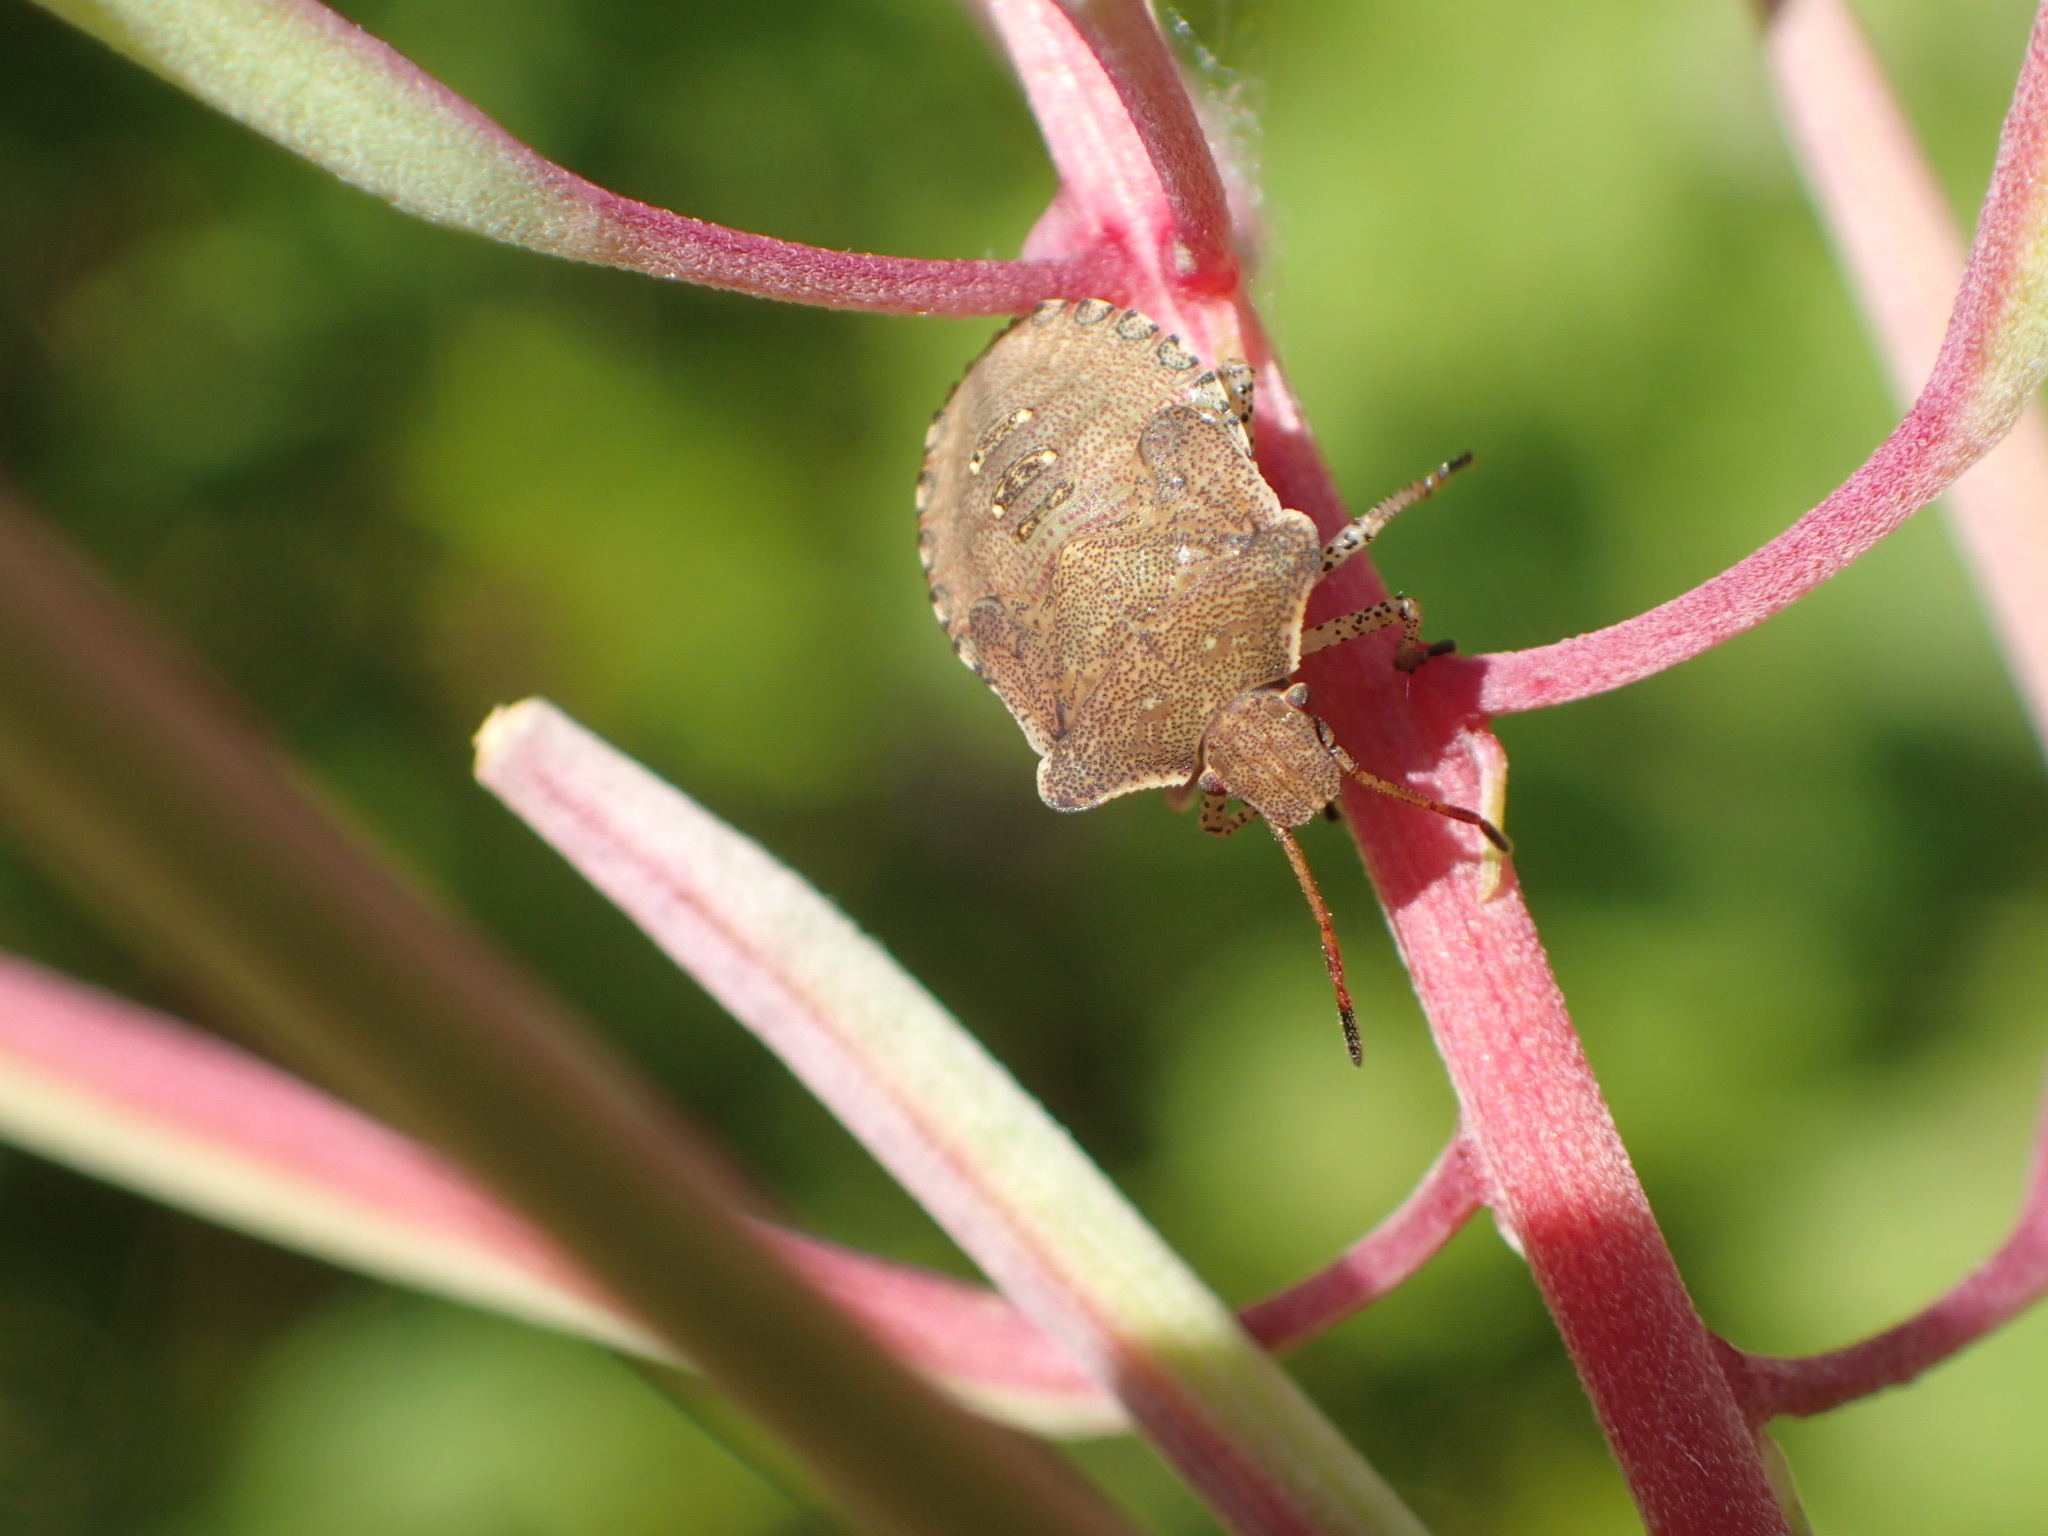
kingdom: Animalia
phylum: Arthropoda
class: Insecta
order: Hemiptera
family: Pentatomidae
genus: Euschistus
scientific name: Euschistus tristigmus
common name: Dusky stink bug
